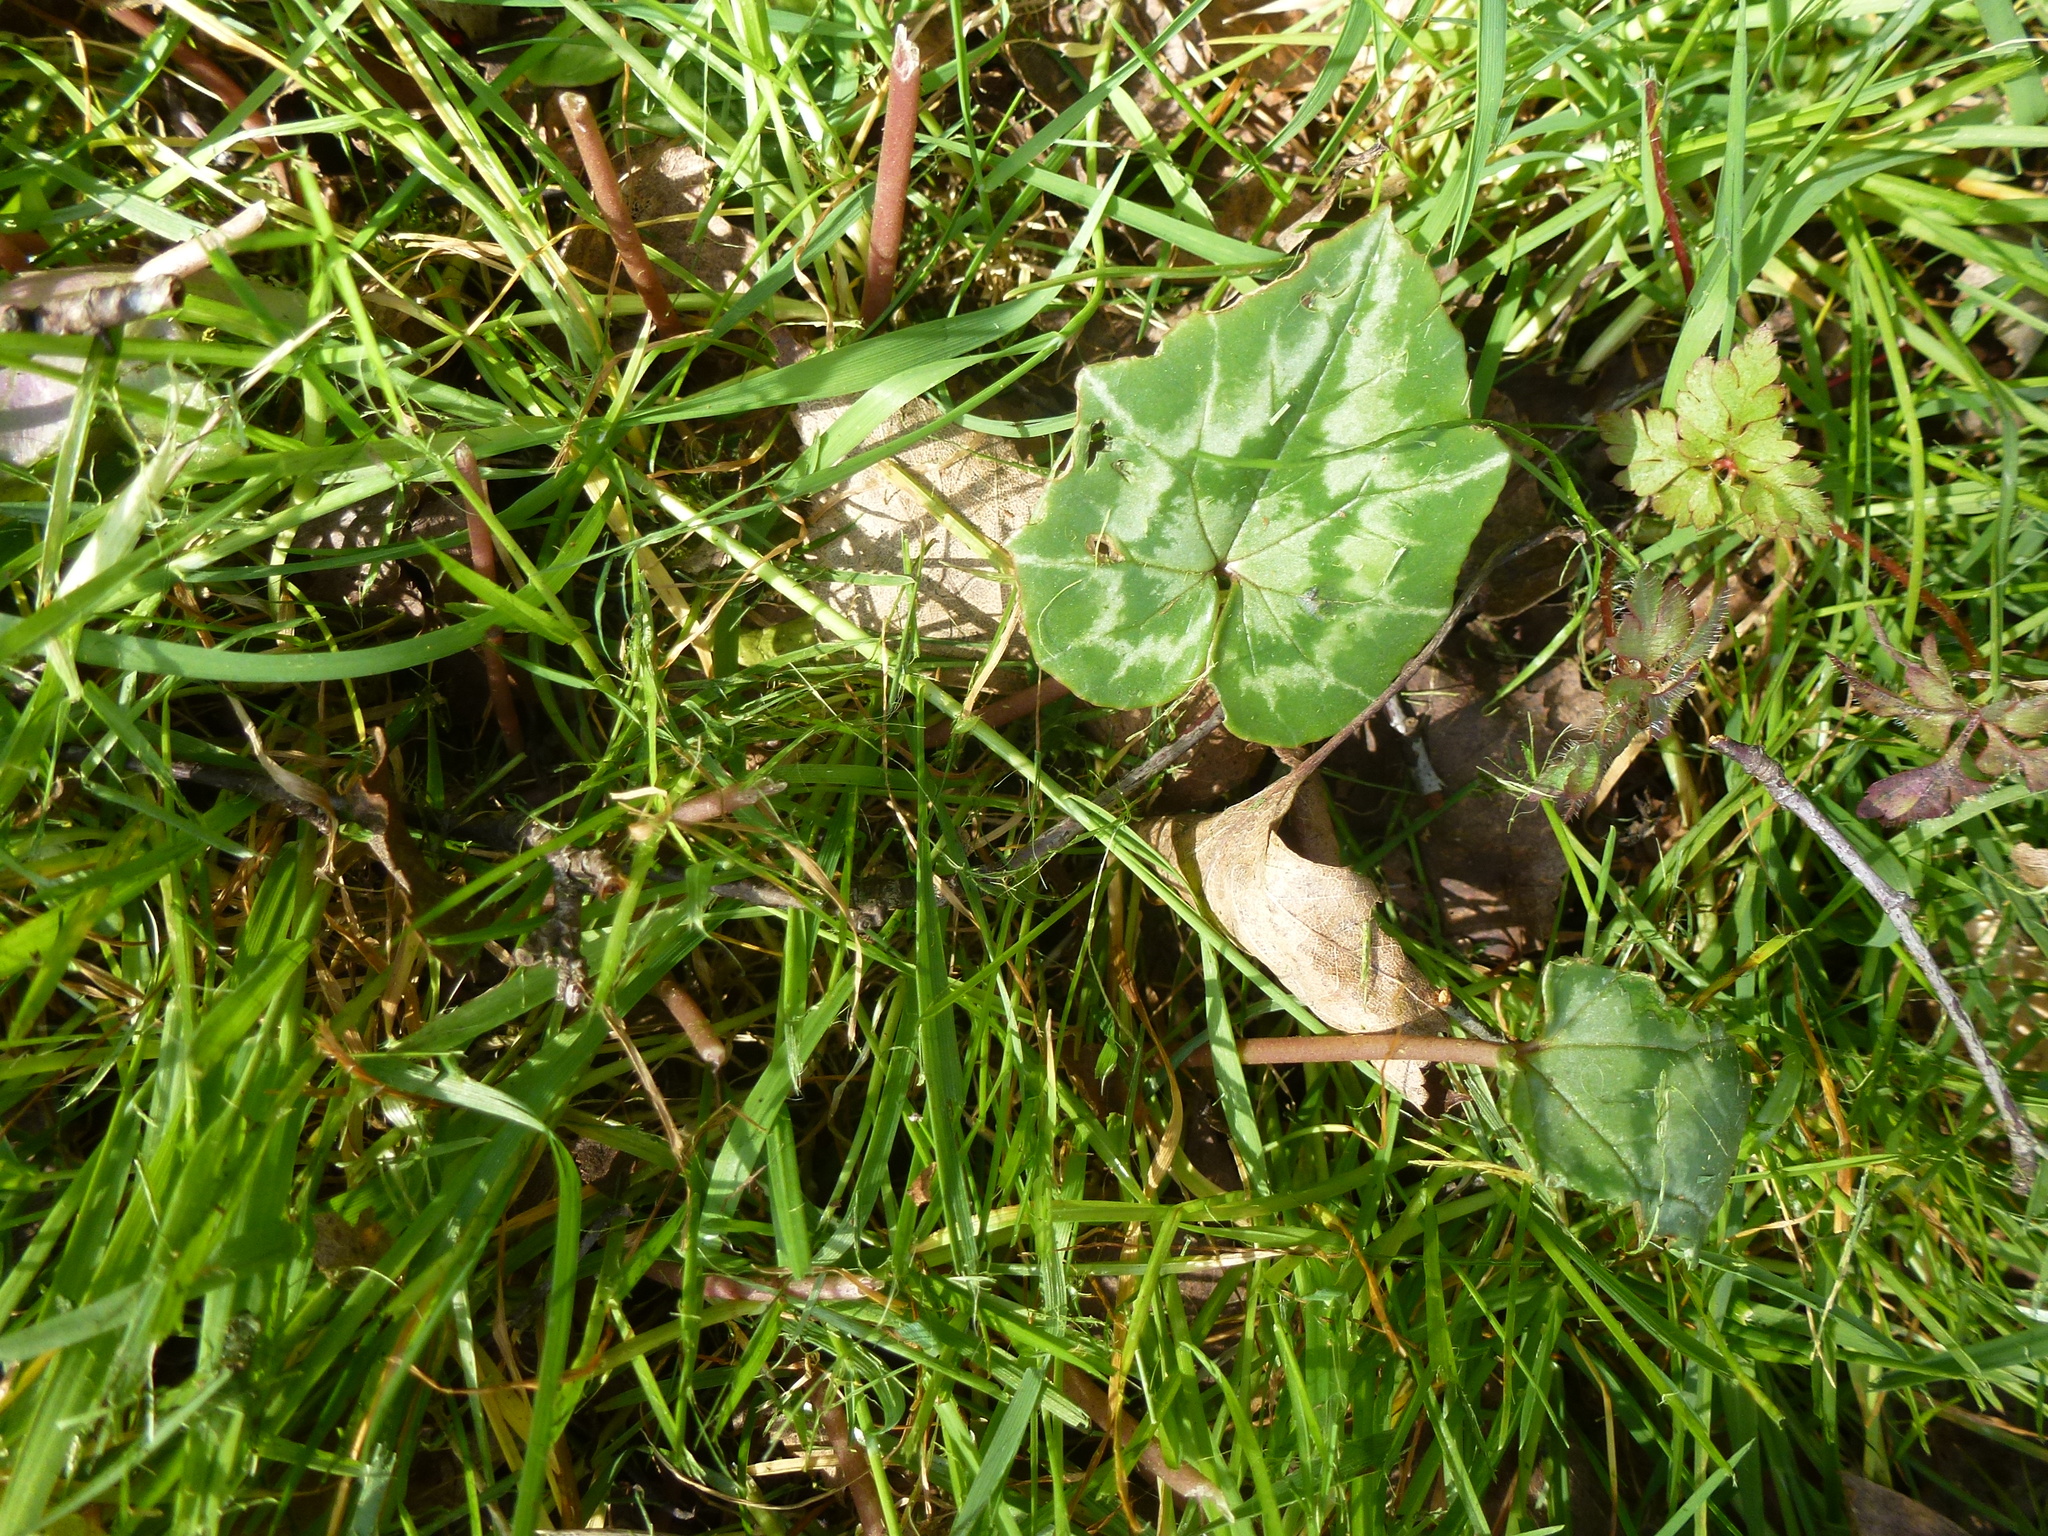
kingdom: Plantae
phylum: Tracheophyta
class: Magnoliopsida
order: Ericales
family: Primulaceae
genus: Cyclamen
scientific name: Cyclamen hederifolium
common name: Sowbread
